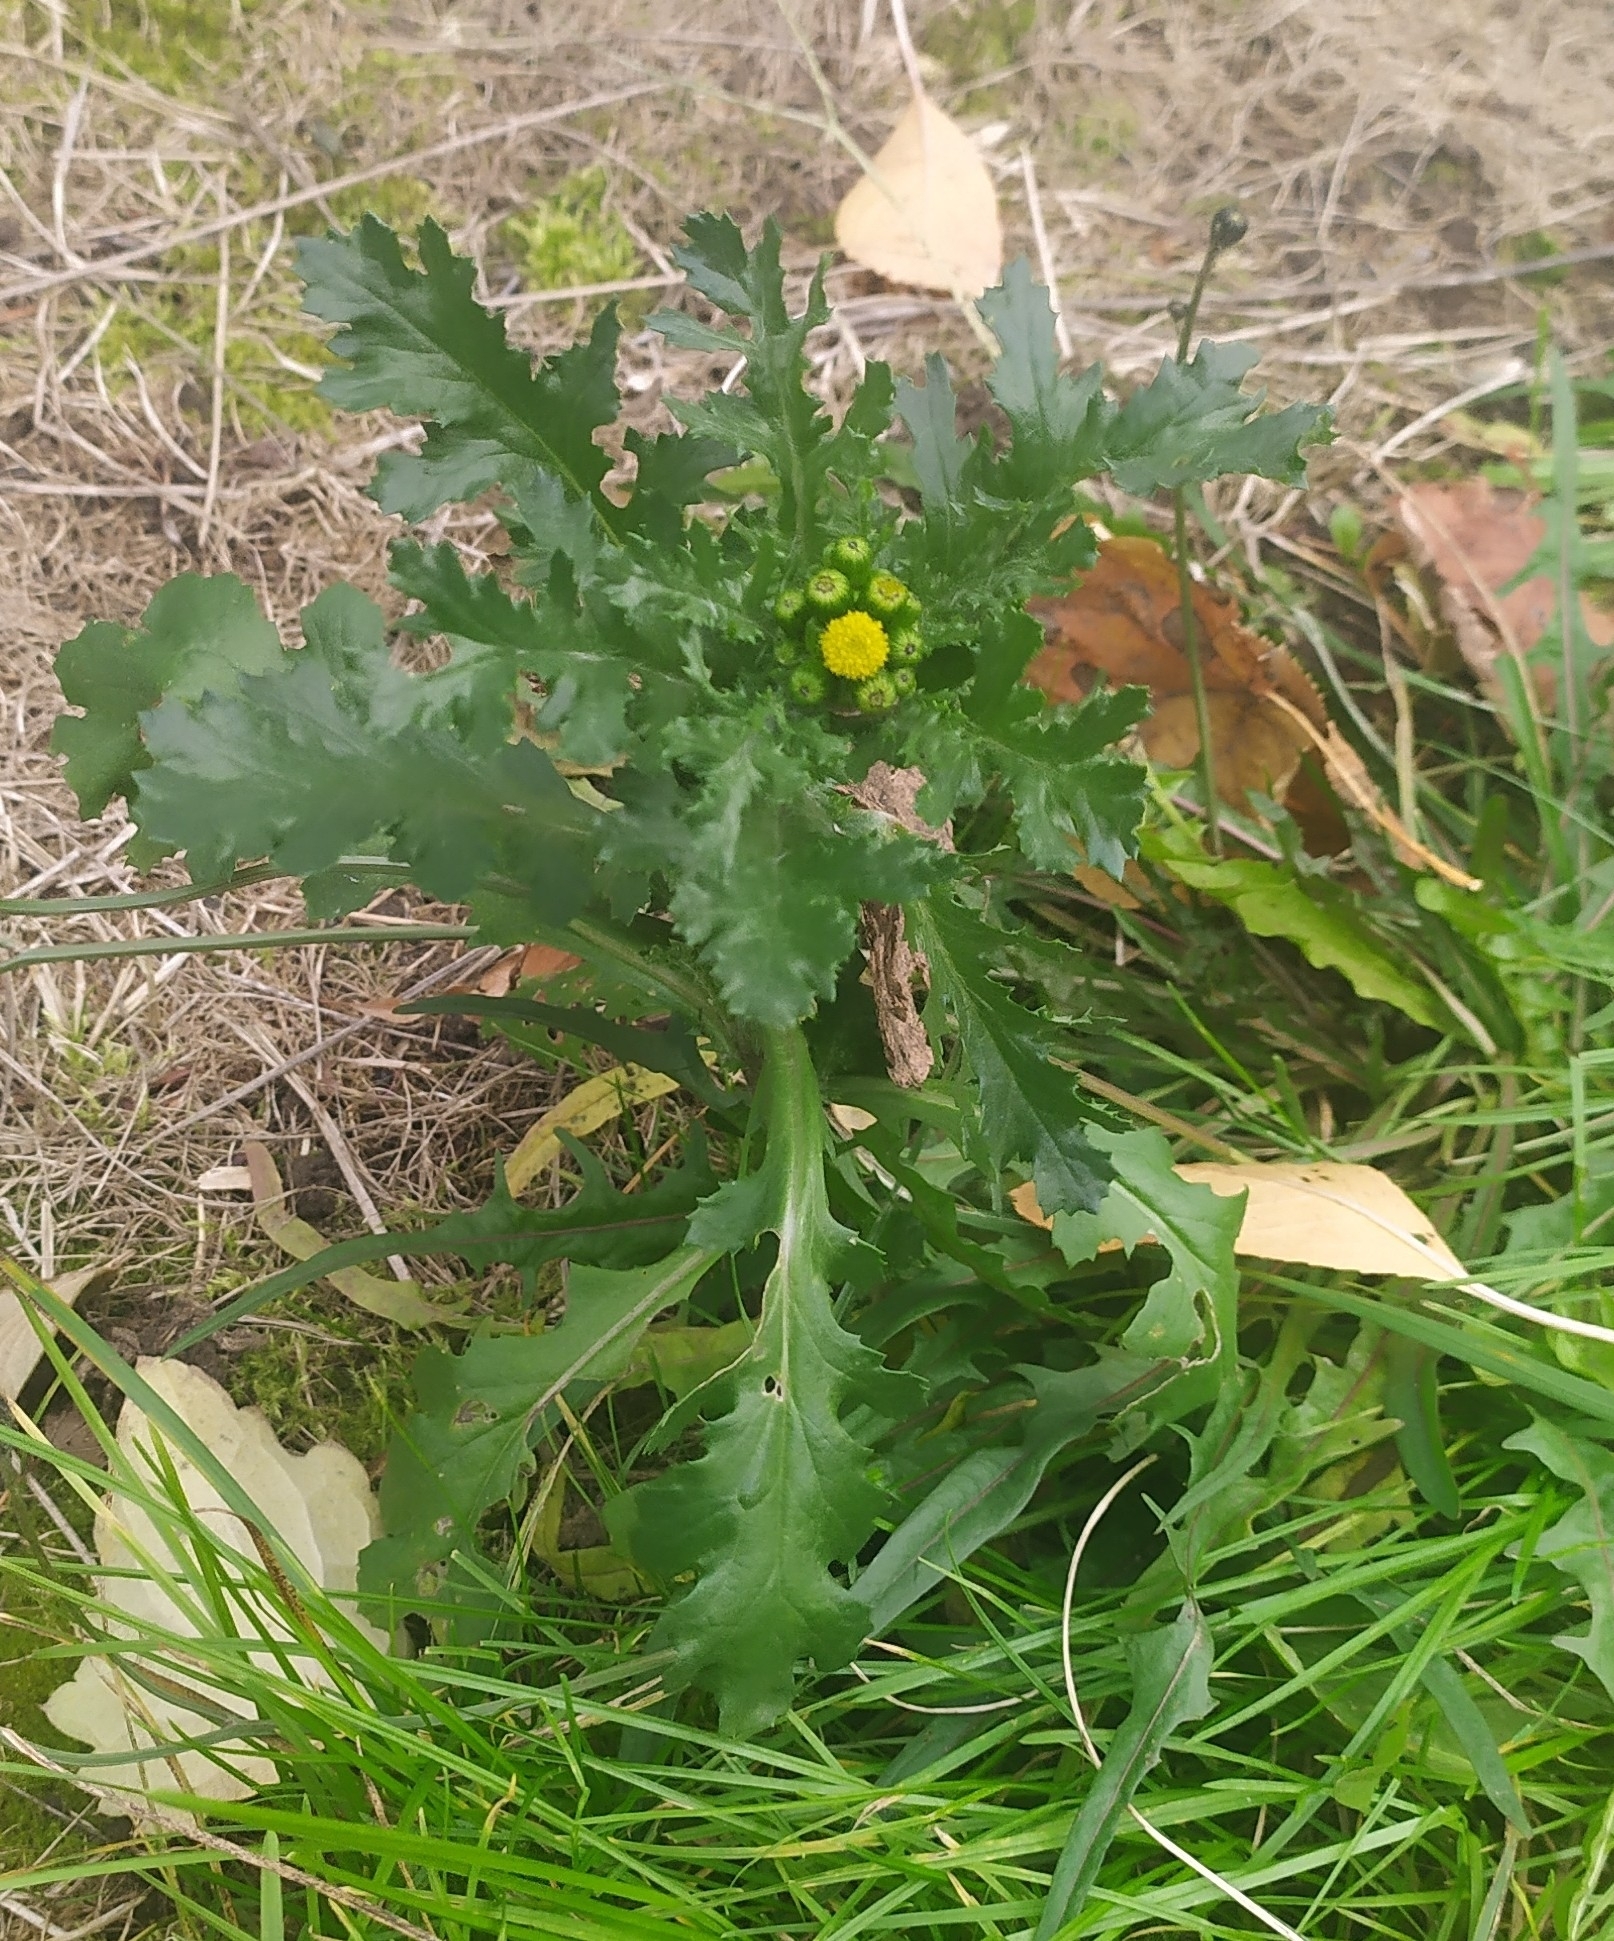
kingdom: Plantae
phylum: Tracheophyta
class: Magnoliopsida
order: Asterales
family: Asteraceae
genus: Senecio
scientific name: Senecio vulgaris
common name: Old-man-in-the-spring
